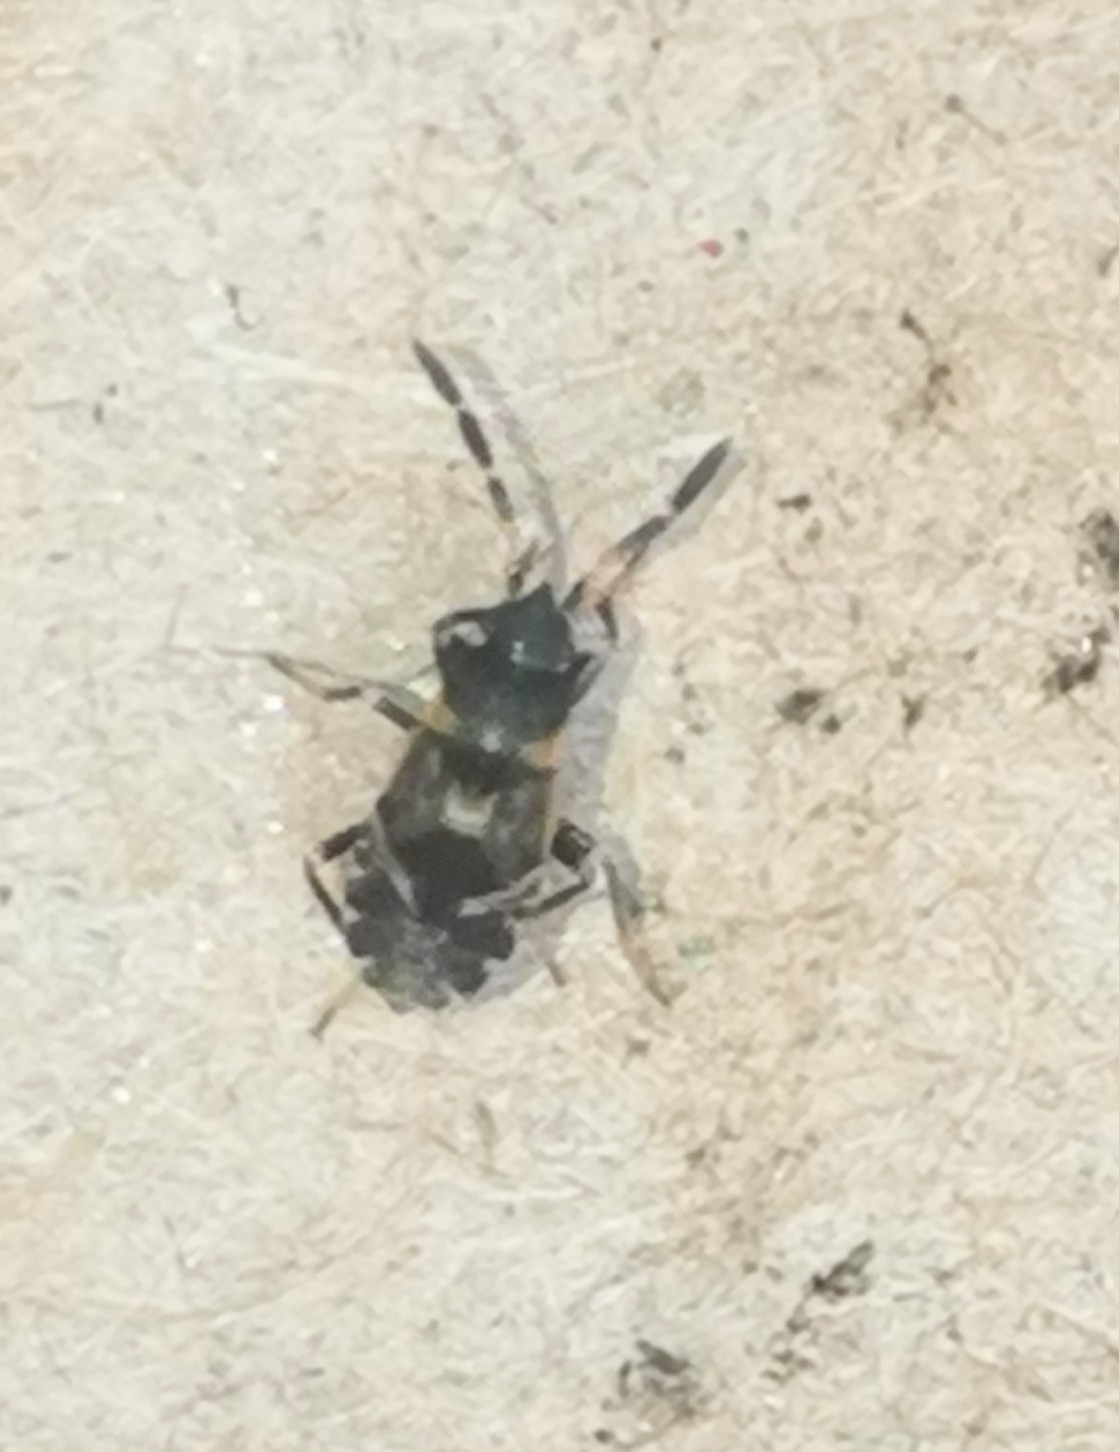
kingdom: Animalia
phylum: Arthropoda
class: Insecta
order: Hemiptera
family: Rhyparochromidae
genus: Scolopostethus
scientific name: Scolopostethus thomsoni
